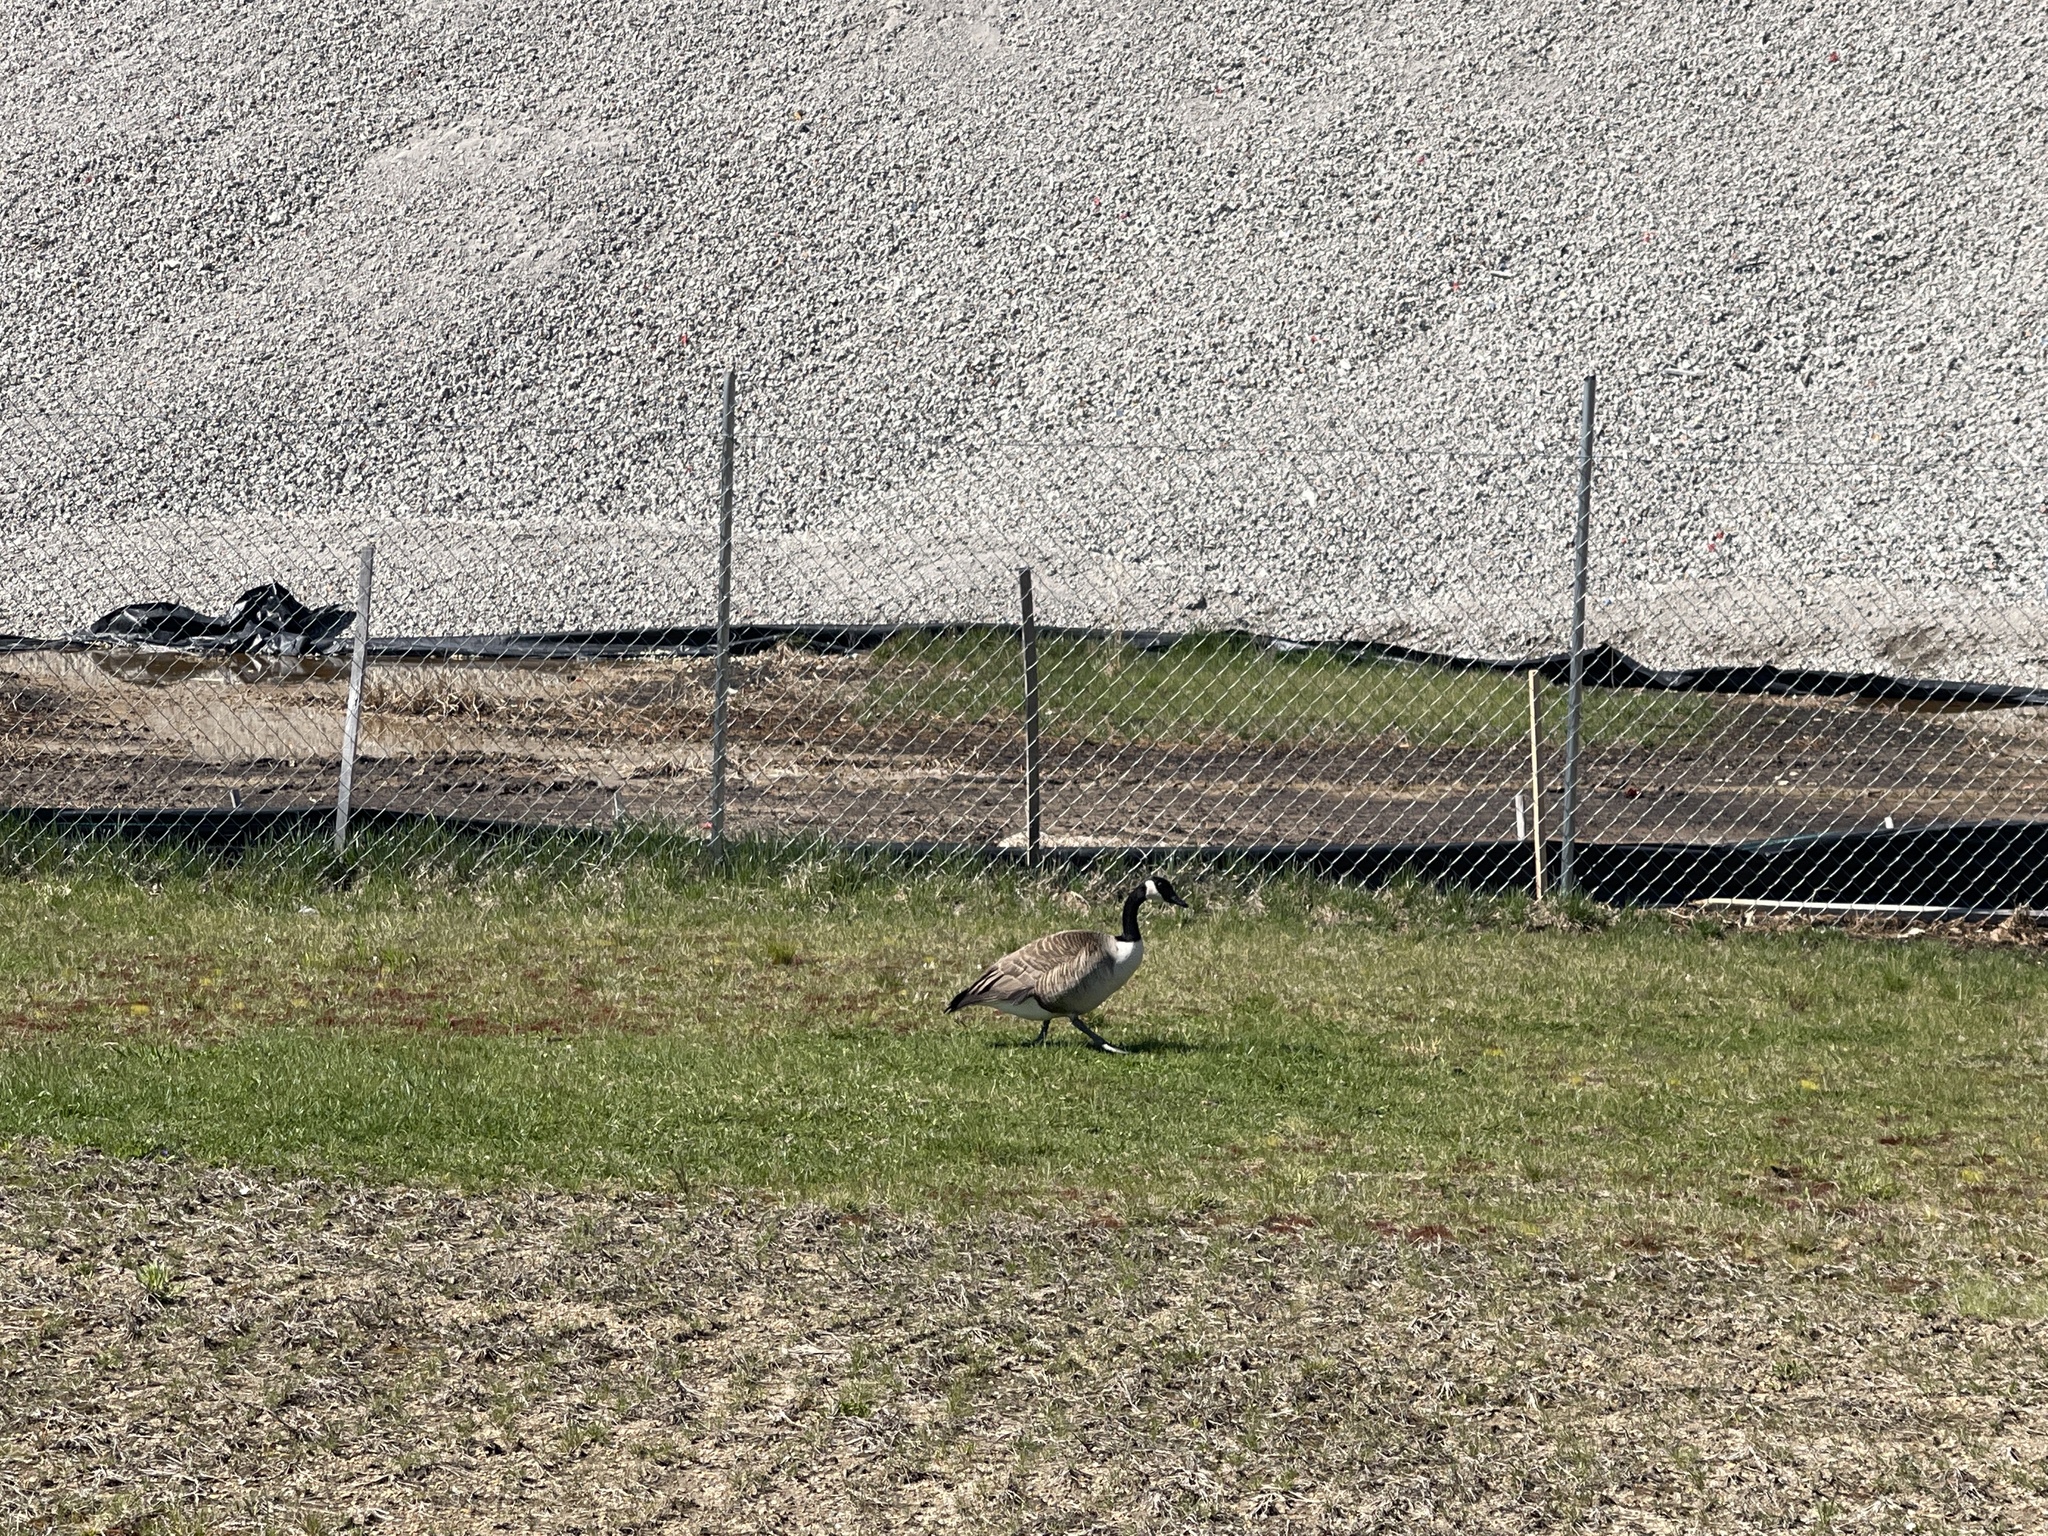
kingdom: Animalia
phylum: Chordata
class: Aves
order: Anseriformes
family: Anatidae
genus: Branta
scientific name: Branta canadensis
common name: Canada goose
